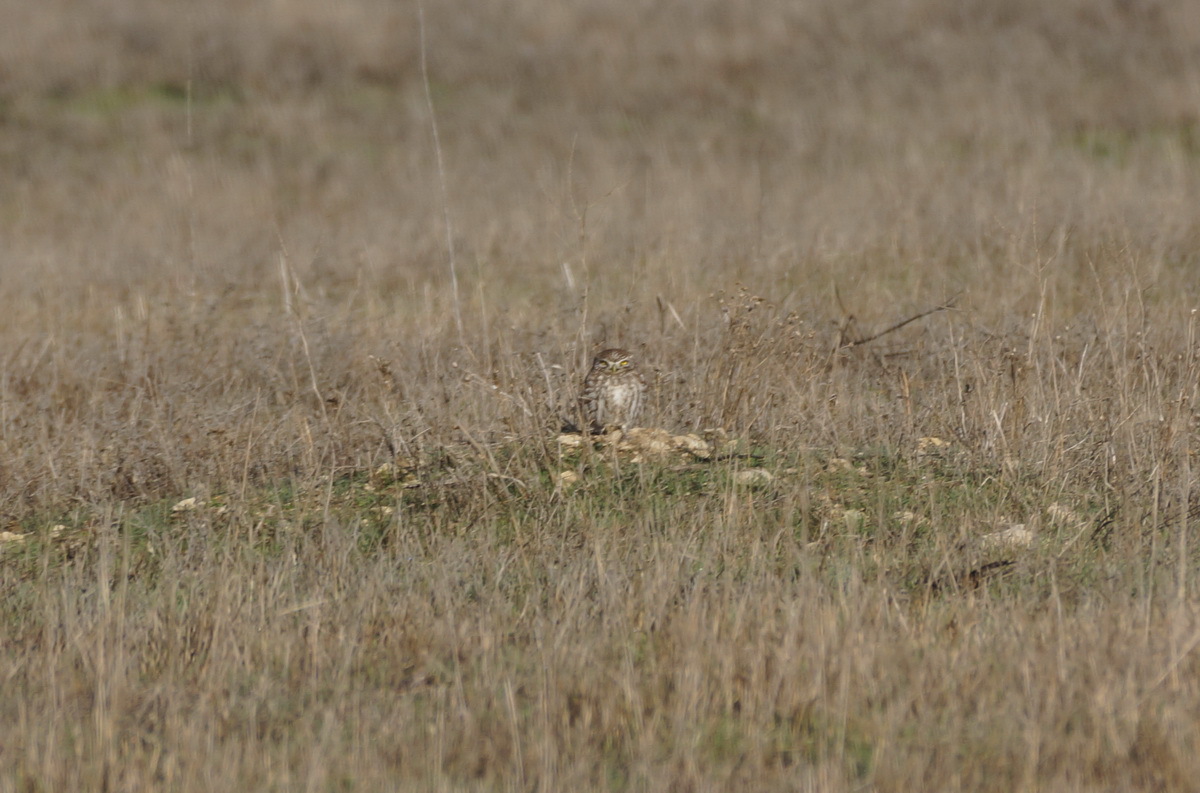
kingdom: Animalia
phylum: Chordata
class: Aves
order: Strigiformes
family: Strigidae
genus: Athene
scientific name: Athene noctua
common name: Little owl
